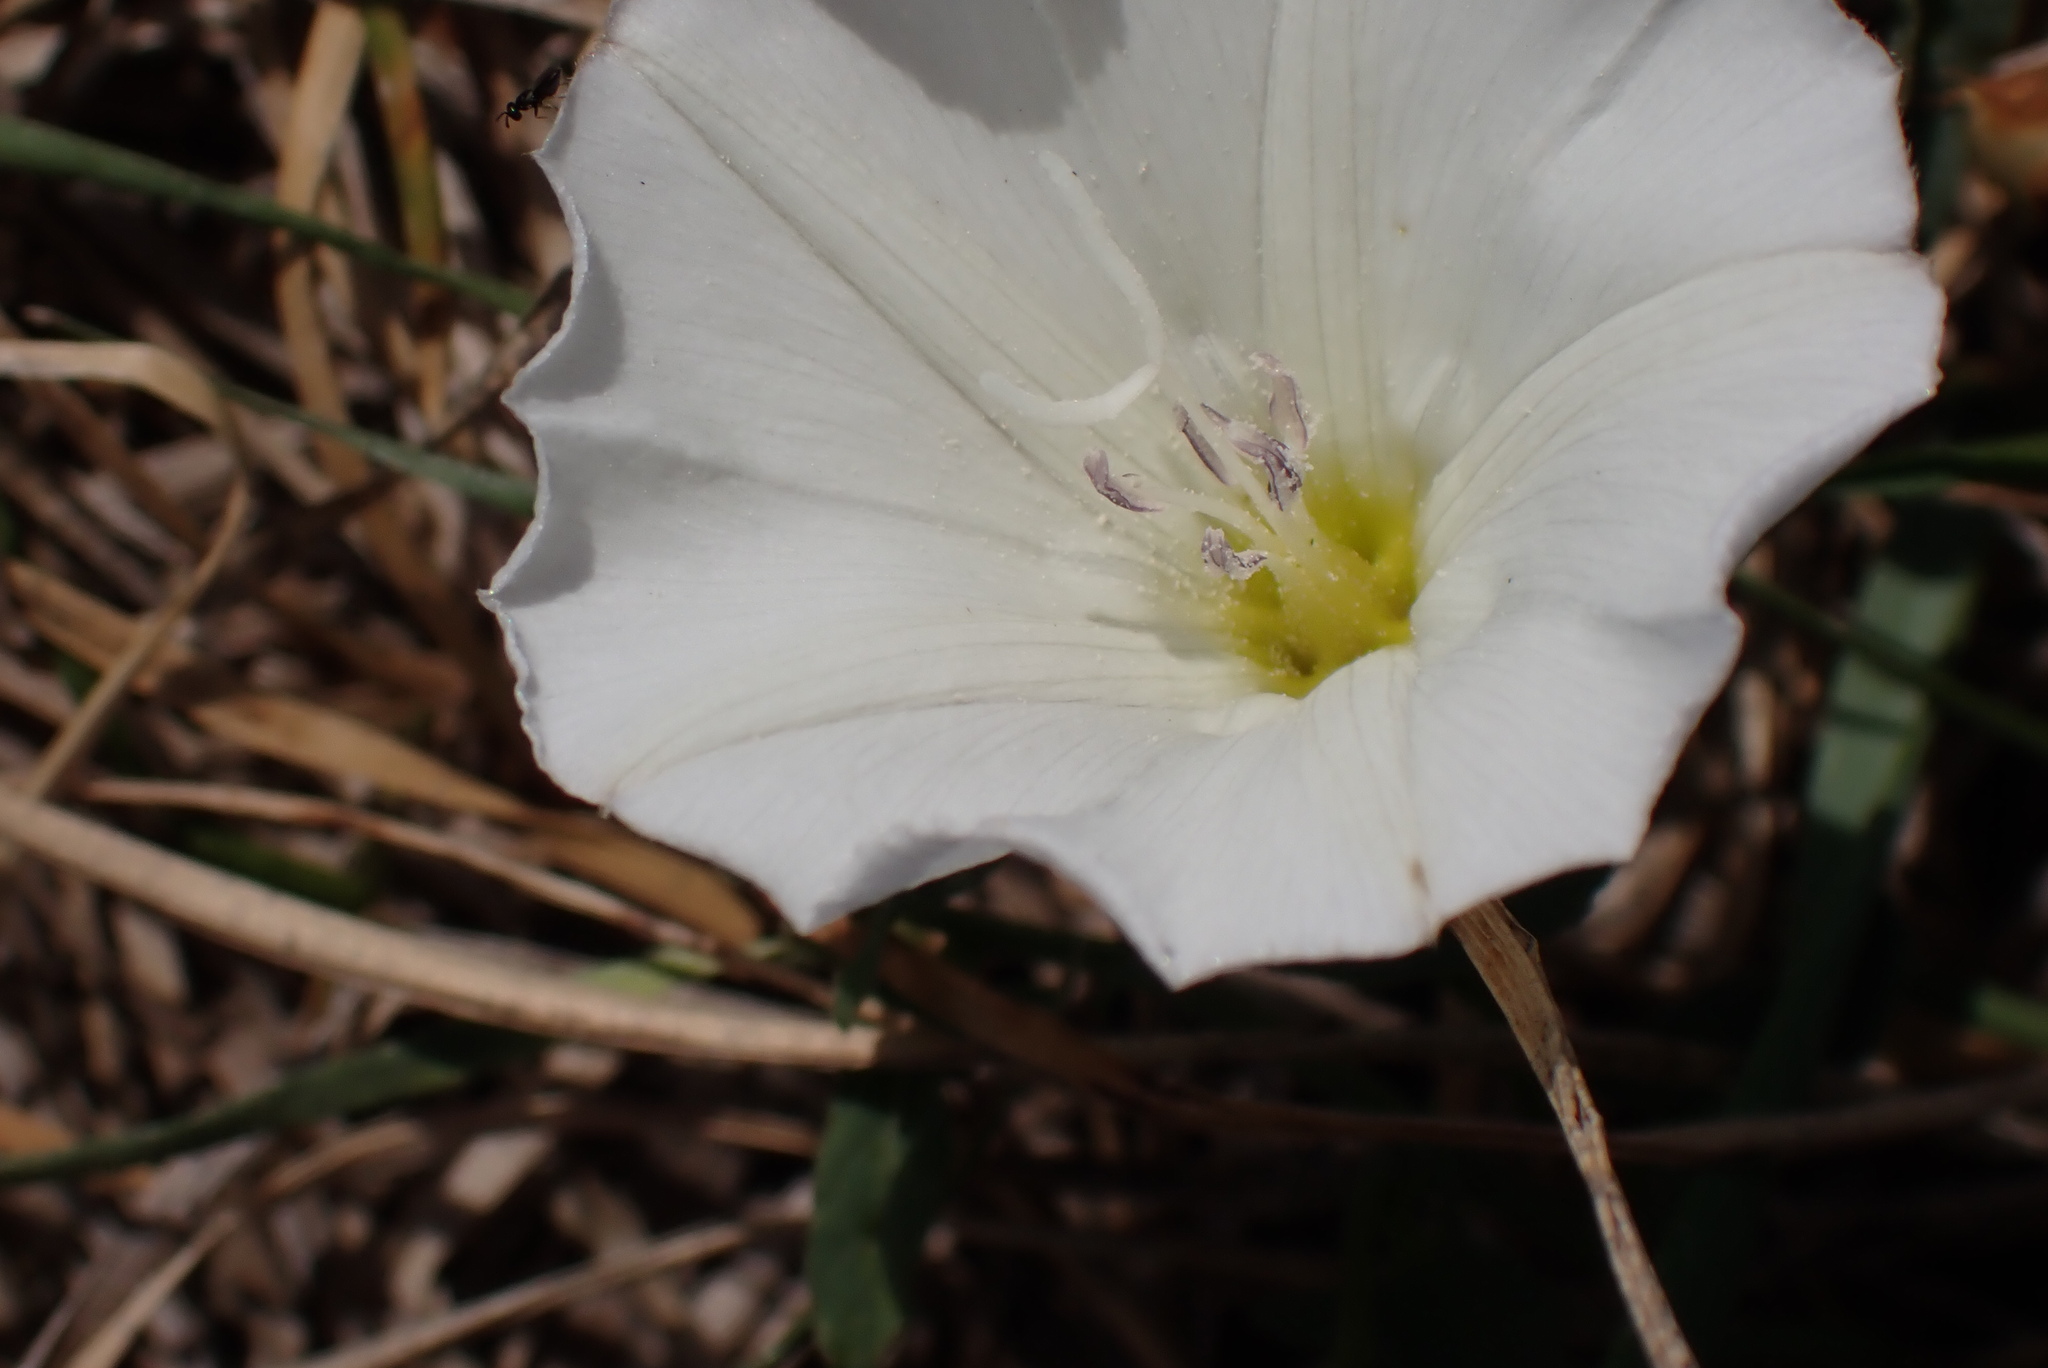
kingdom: Plantae
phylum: Tracheophyta
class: Magnoliopsida
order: Solanales
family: Convolvulaceae
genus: Convolvulus
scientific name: Convolvulus arvensis
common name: Field bindweed
